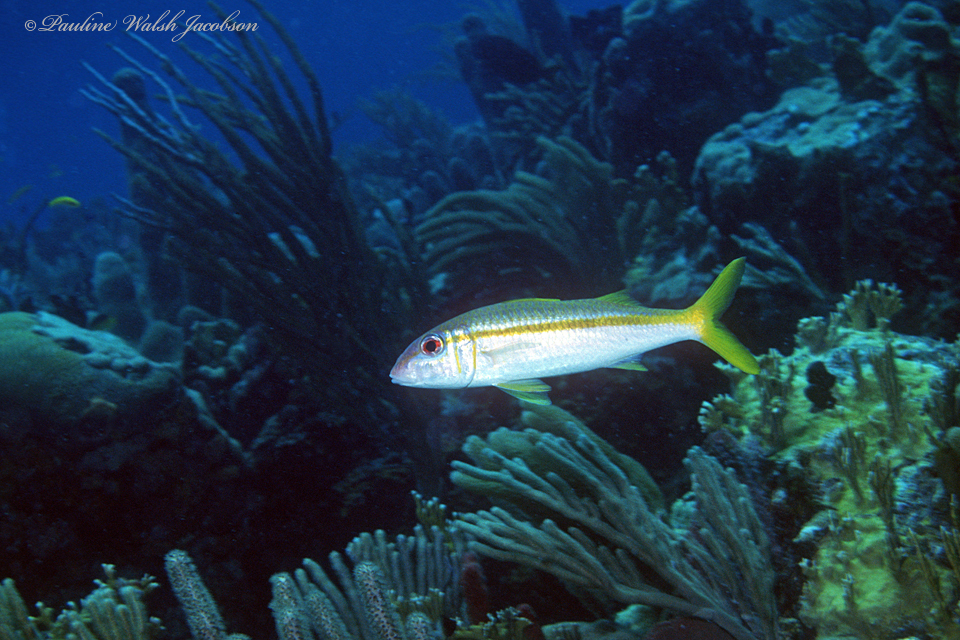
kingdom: Animalia
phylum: Chordata
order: Perciformes
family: Mullidae
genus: Mulloidichthys
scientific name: Mulloidichthys martinicus
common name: Yellow goatfish
